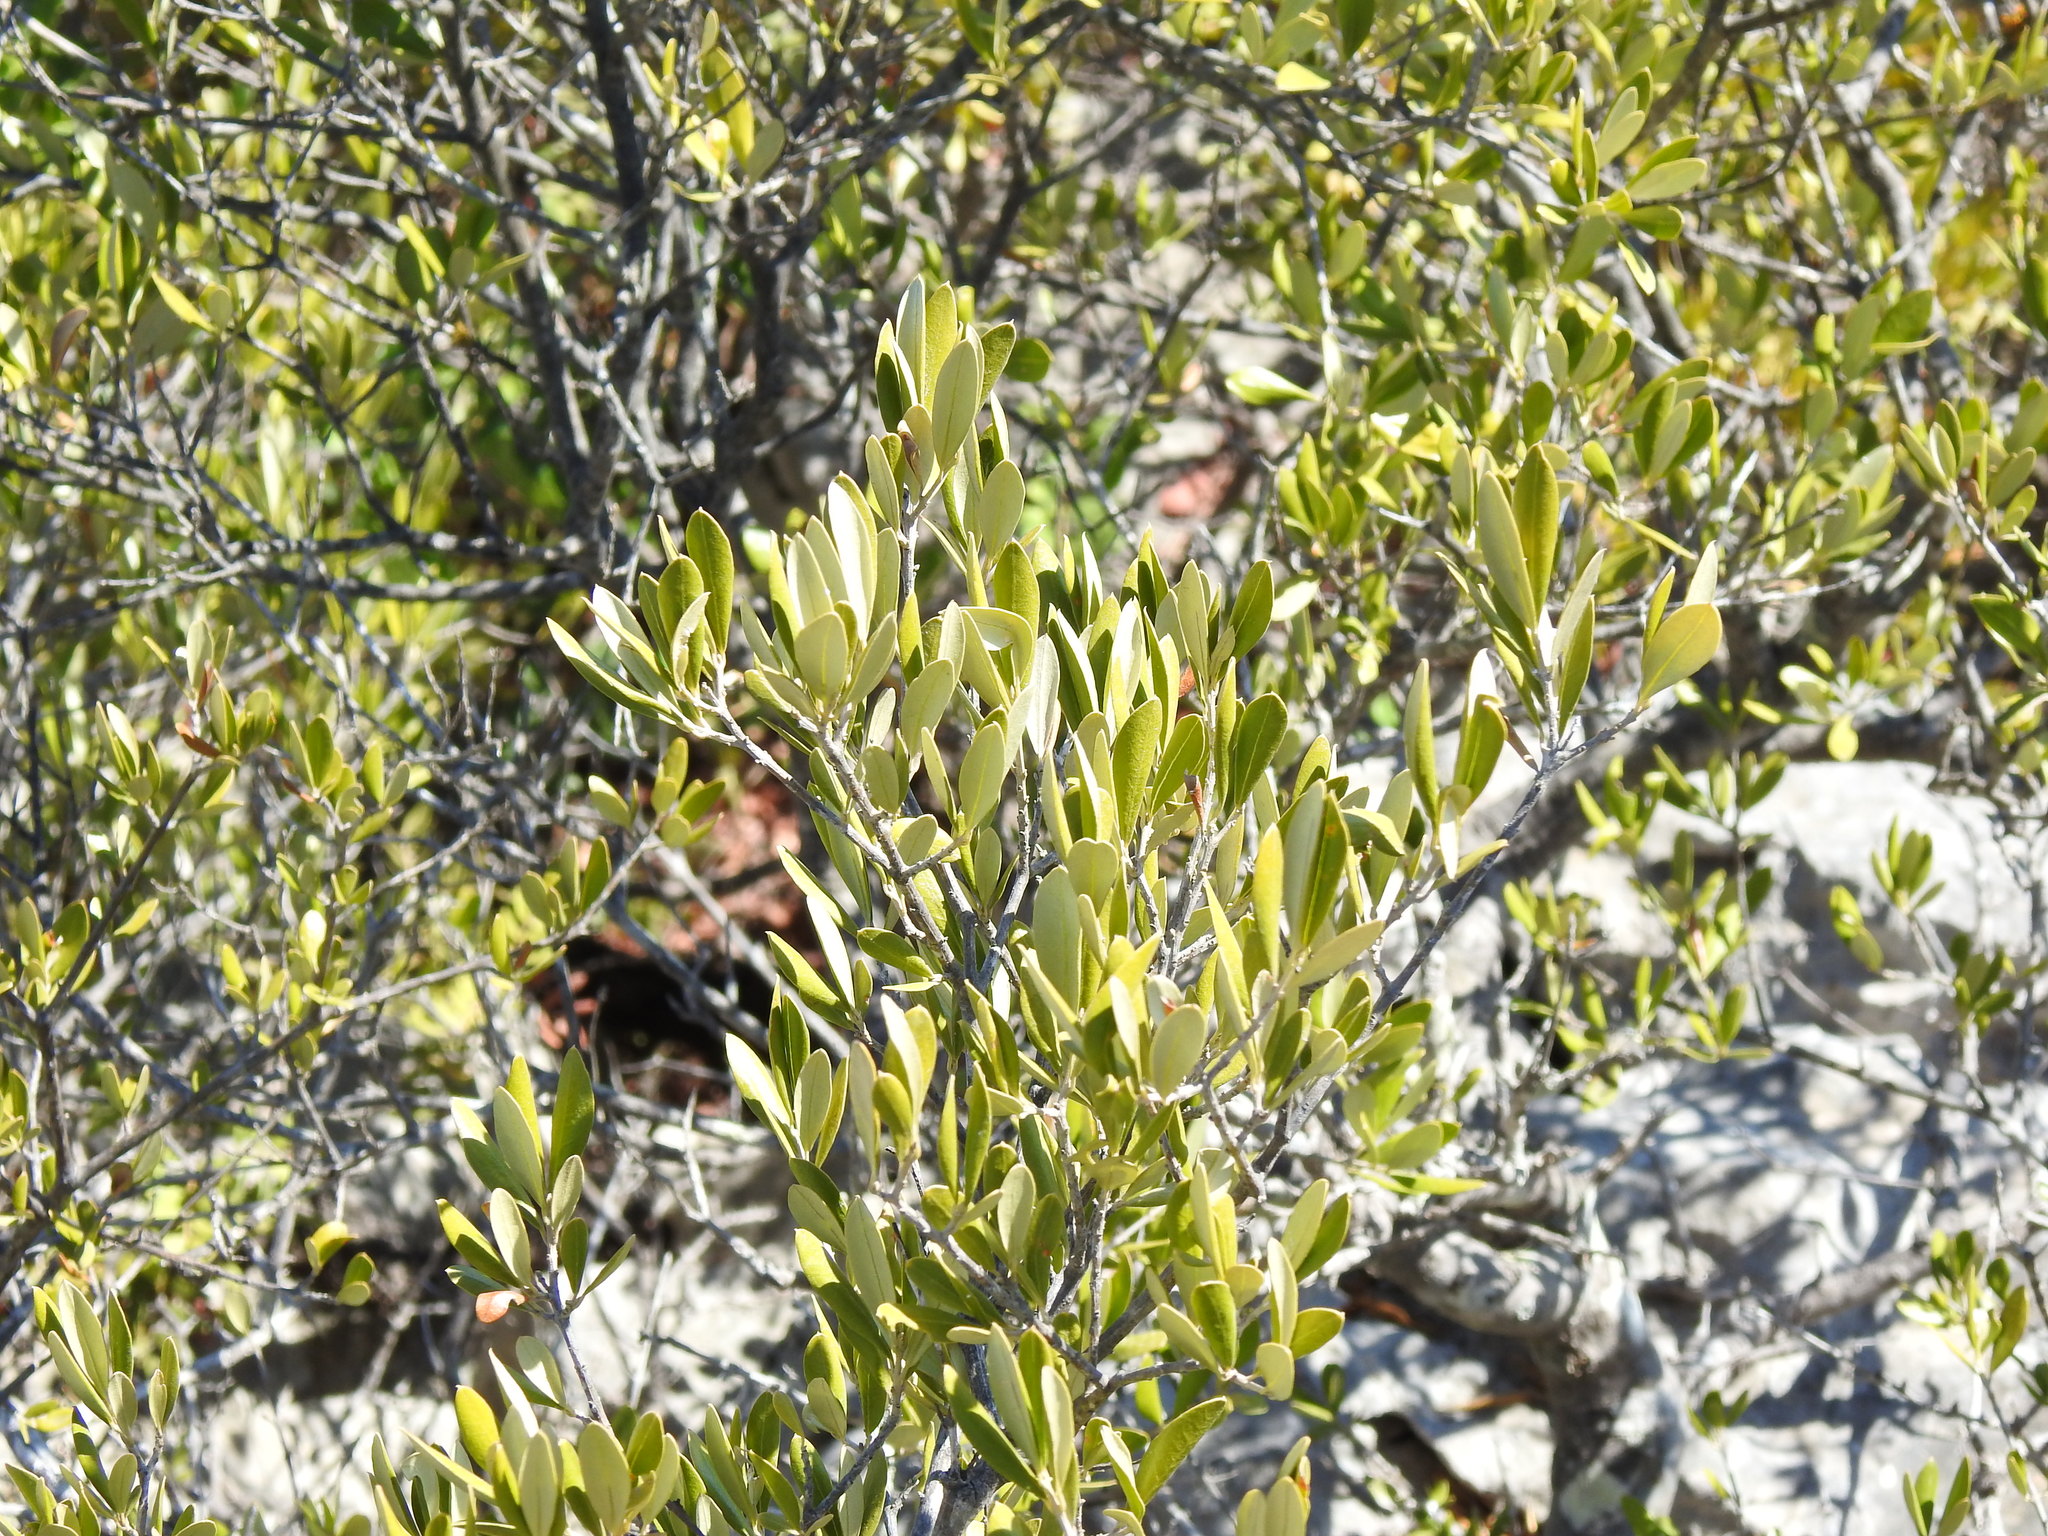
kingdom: Plantae
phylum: Tracheophyta
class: Magnoliopsida
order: Lamiales
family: Oleaceae
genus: Olea
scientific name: Olea europaea
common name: Olive
